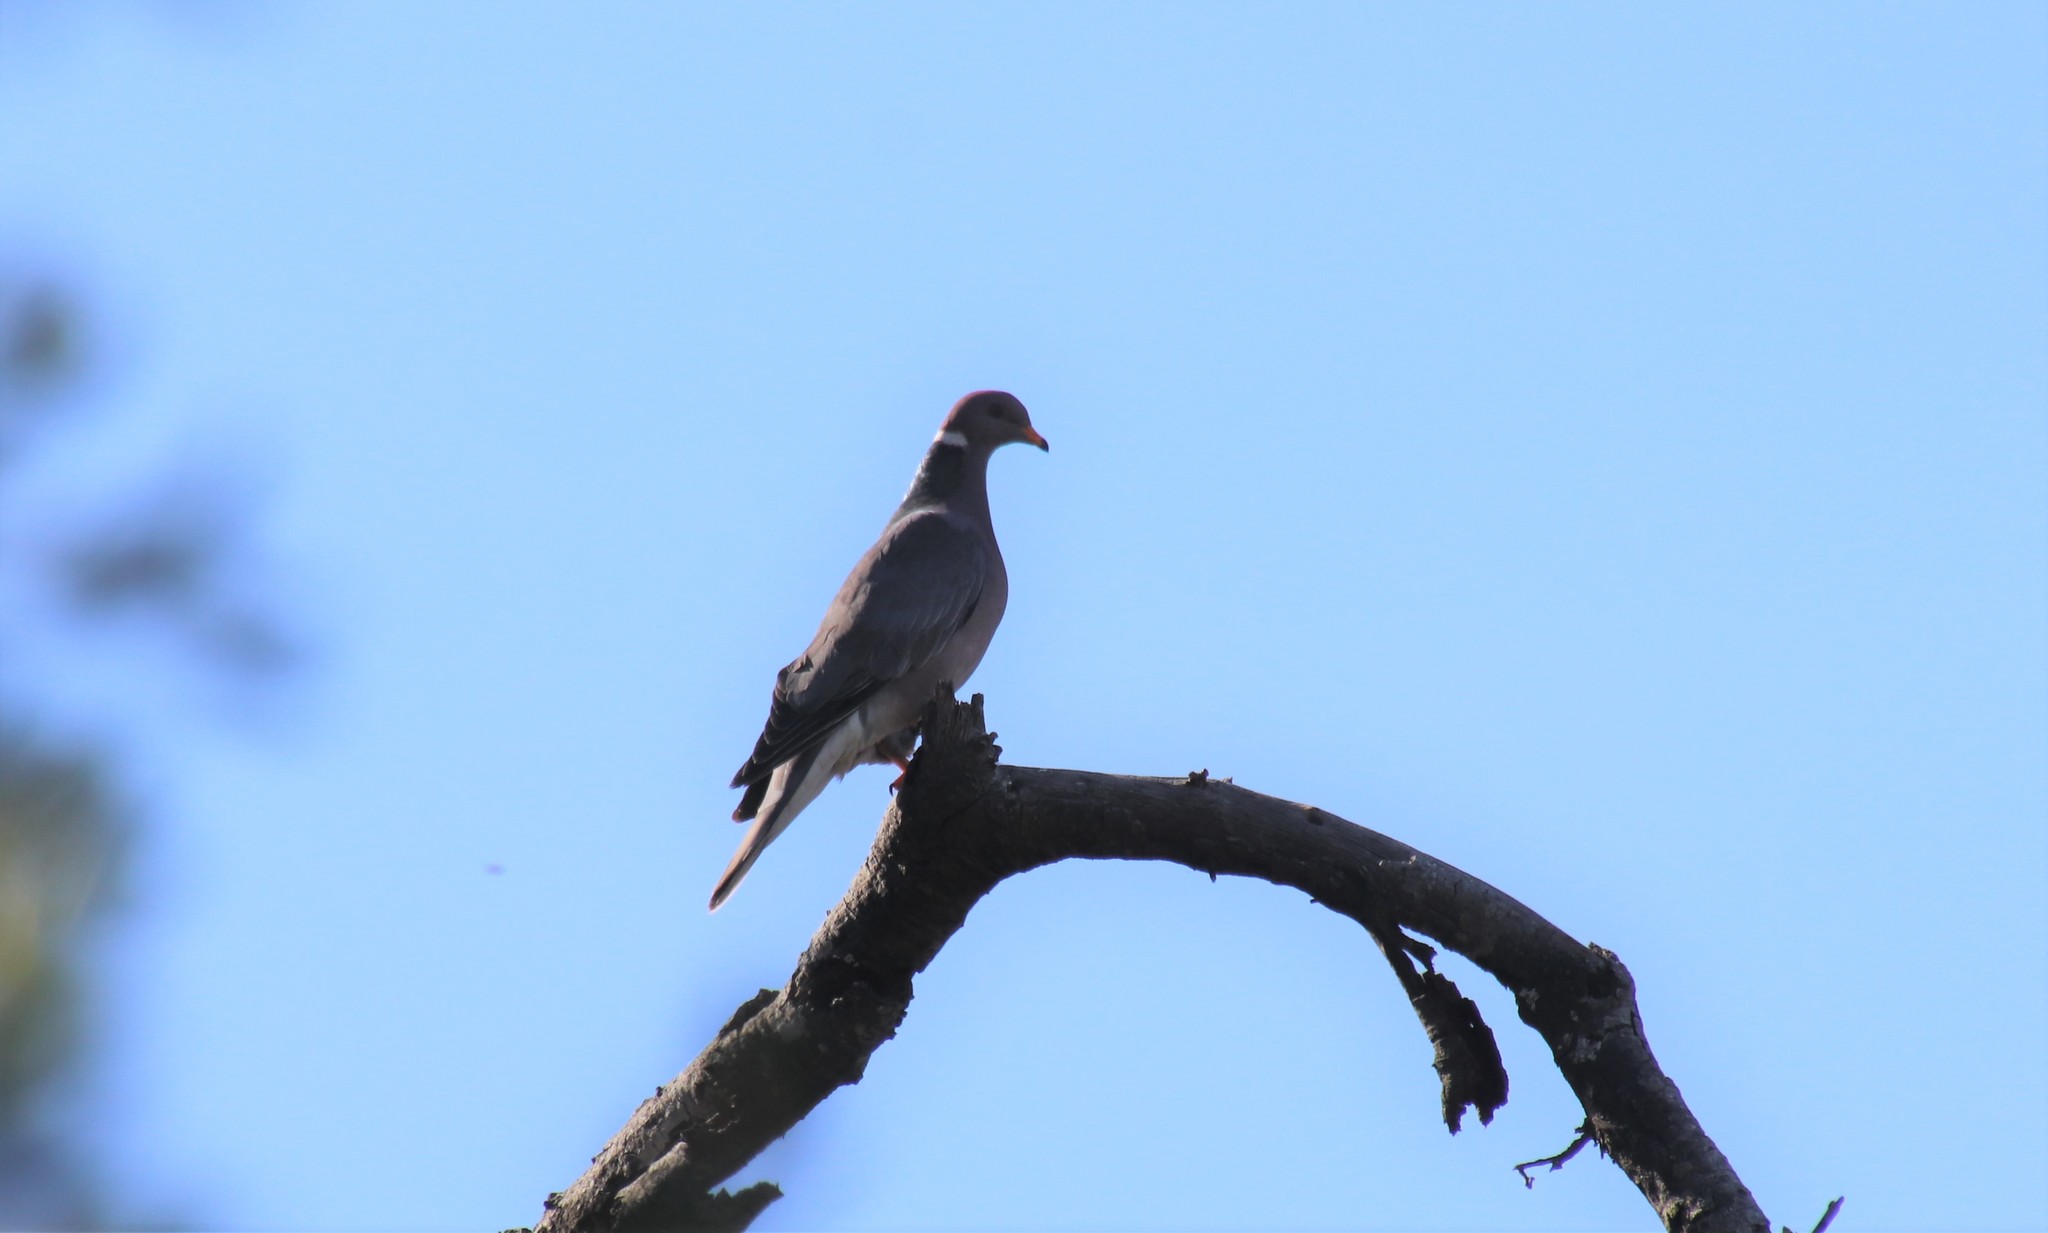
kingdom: Animalia
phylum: Chordata
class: Aves
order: Columbiformes
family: Columbidae
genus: Patagioenas
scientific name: Patagioenas fasciata
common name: Band-tailed pigeon
